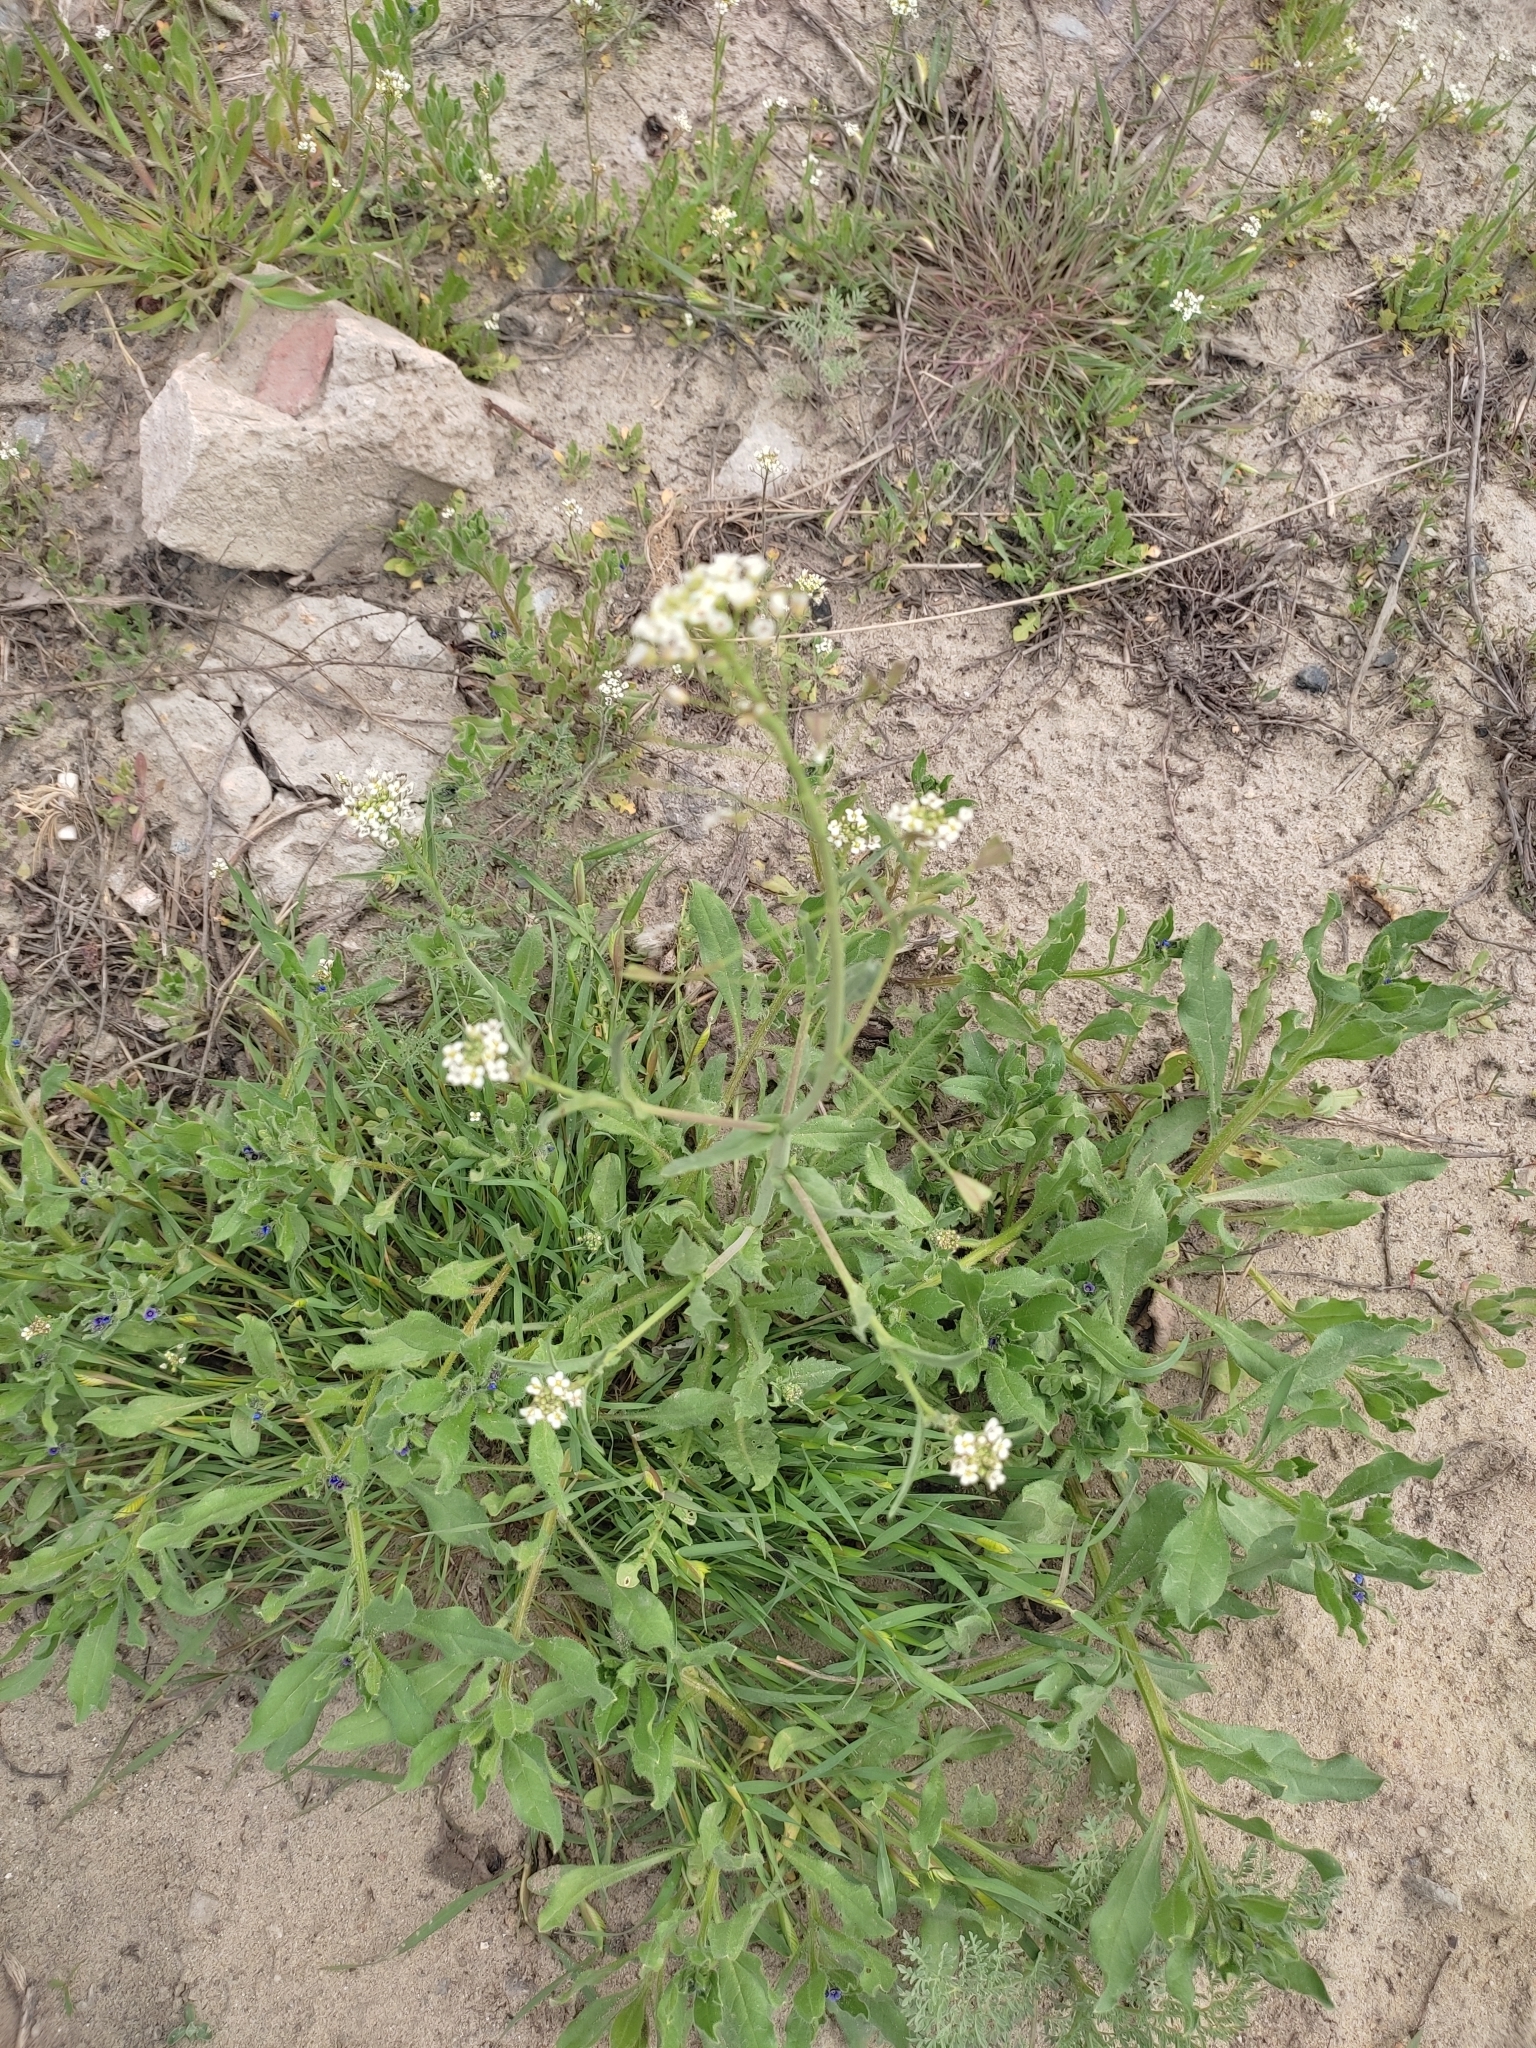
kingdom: Plantae
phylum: Tracheophyta
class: Magnoliopsida
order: Brassicales
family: Brassicaceae
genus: Capsella
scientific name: Capsella bursa-pastoris
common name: Shepherd's purse
